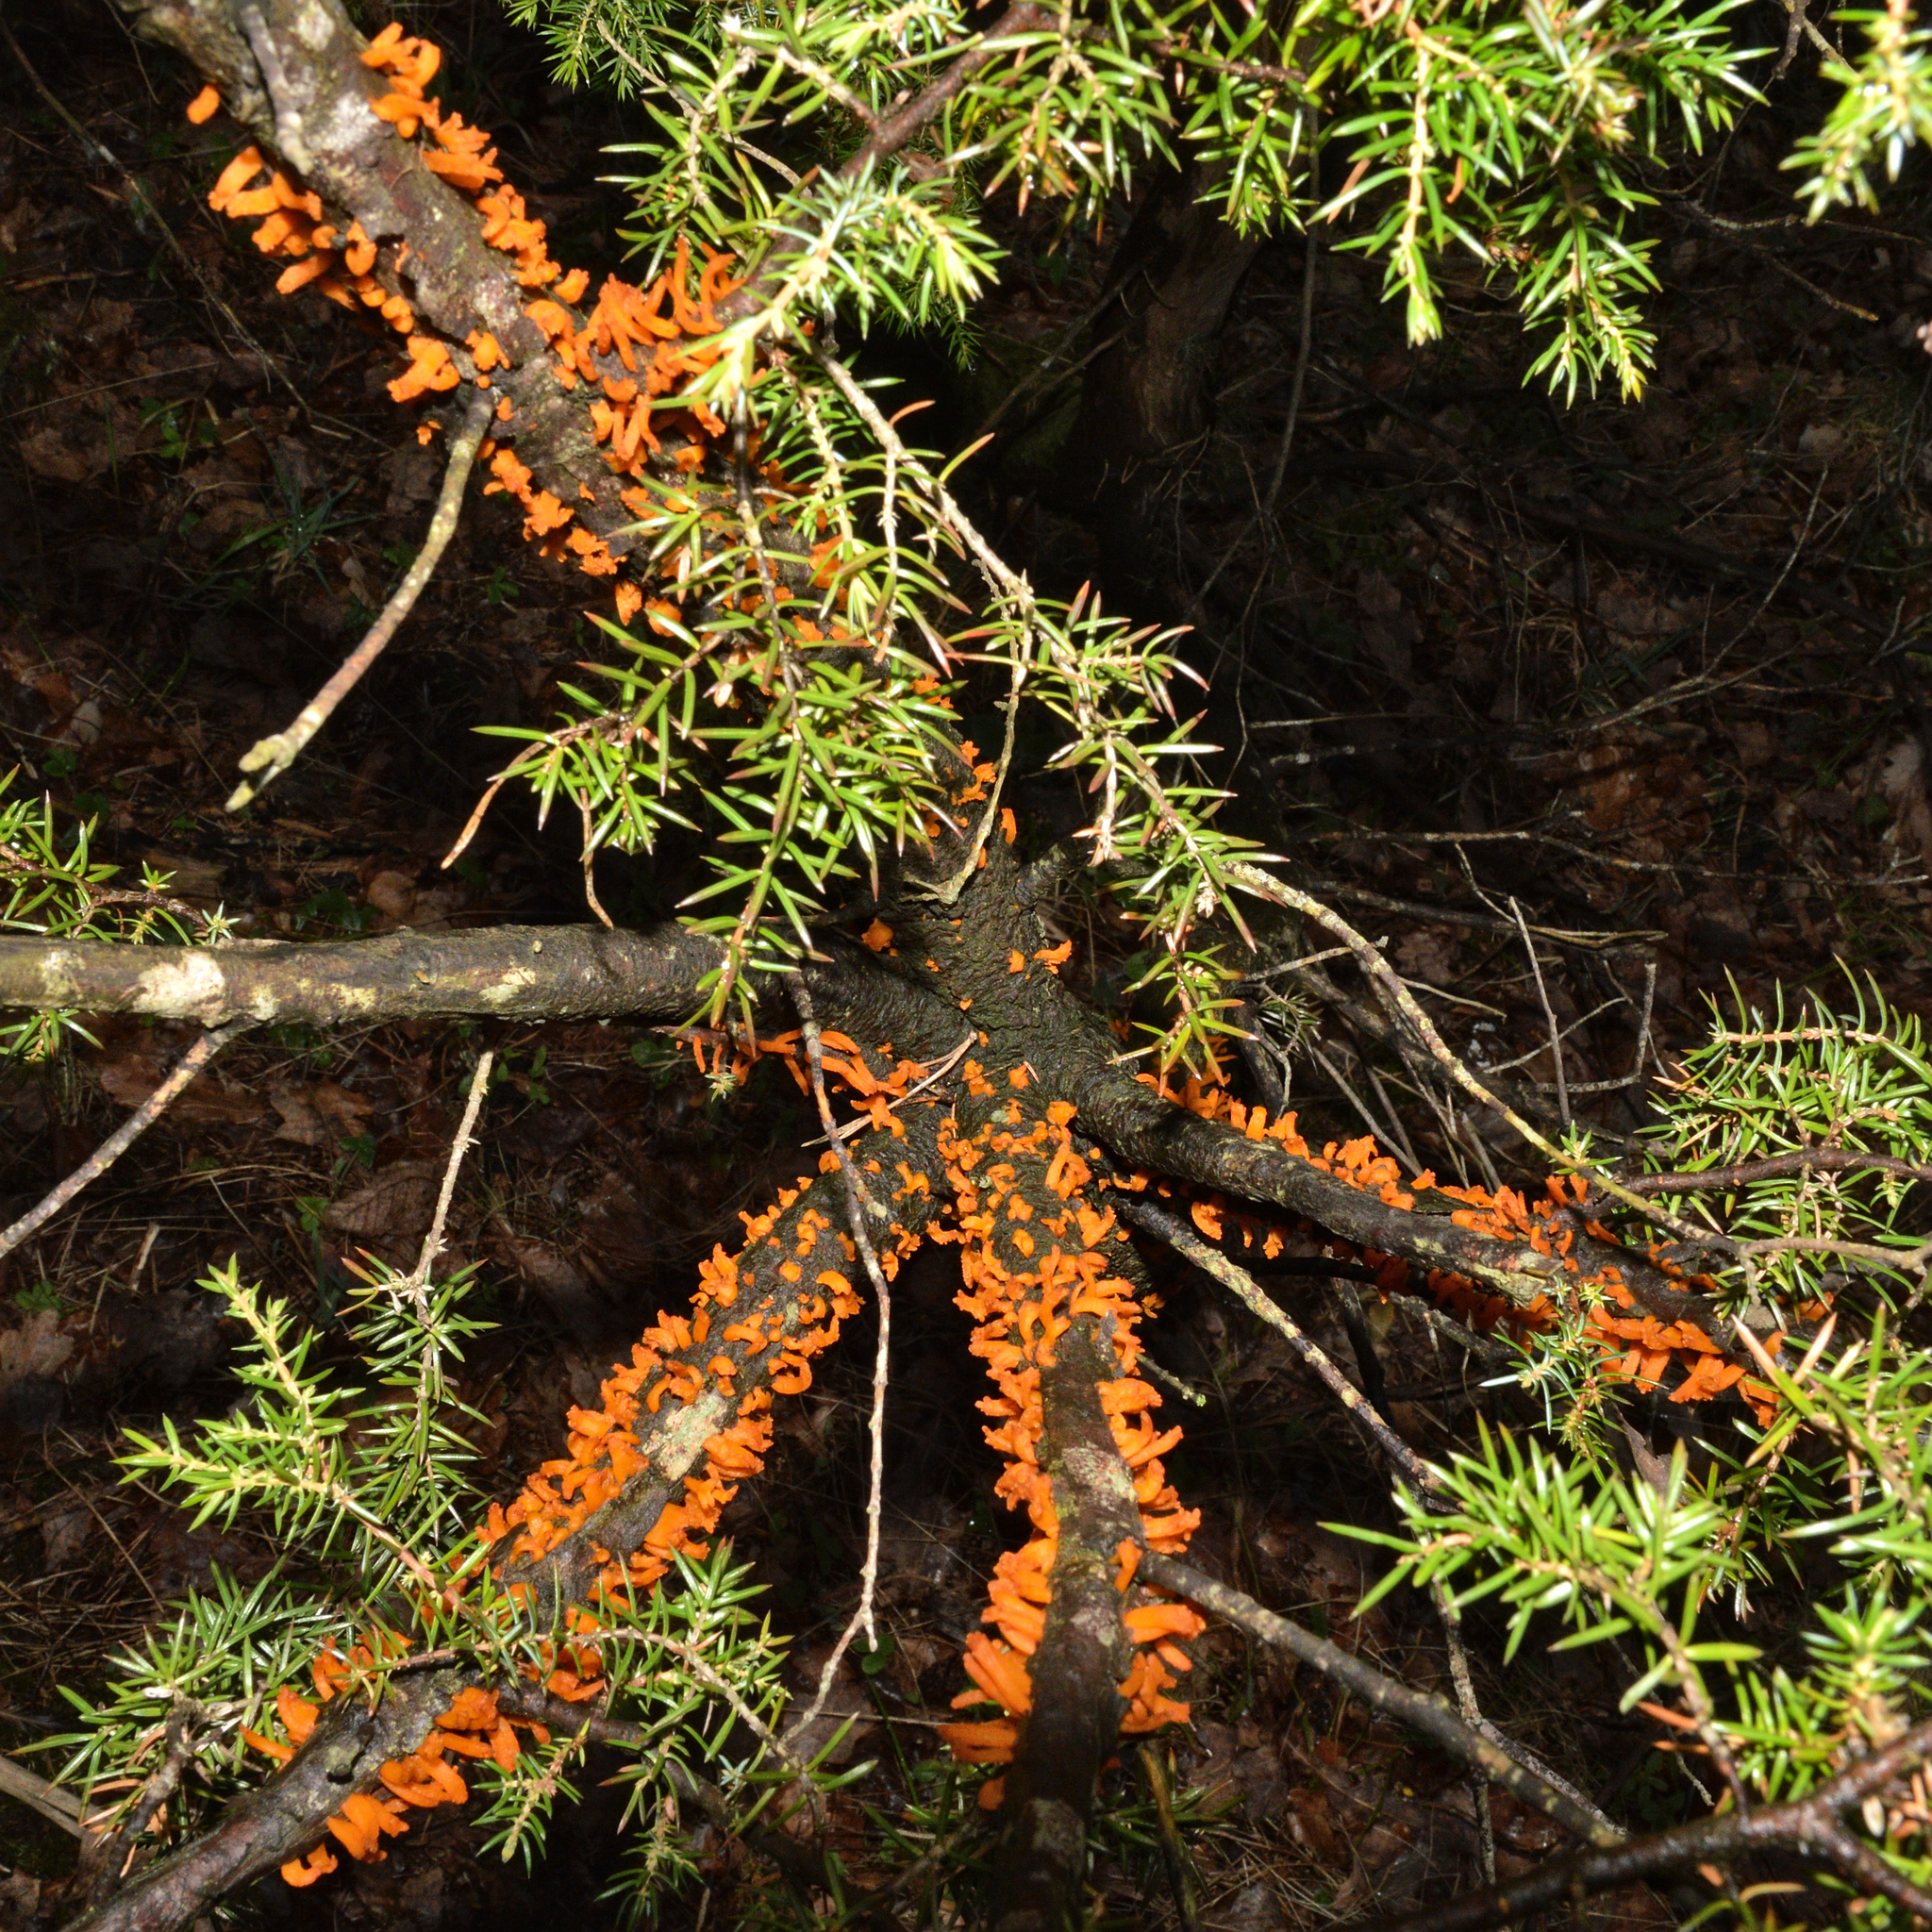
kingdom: Fungi
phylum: Basidiomycota
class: Pucciniomycetes
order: Pucciniales
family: Gymnosporangiaceae
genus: Gymnosporangium
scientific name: Gymnosporangium clavariiforme
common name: Tongues of fire
